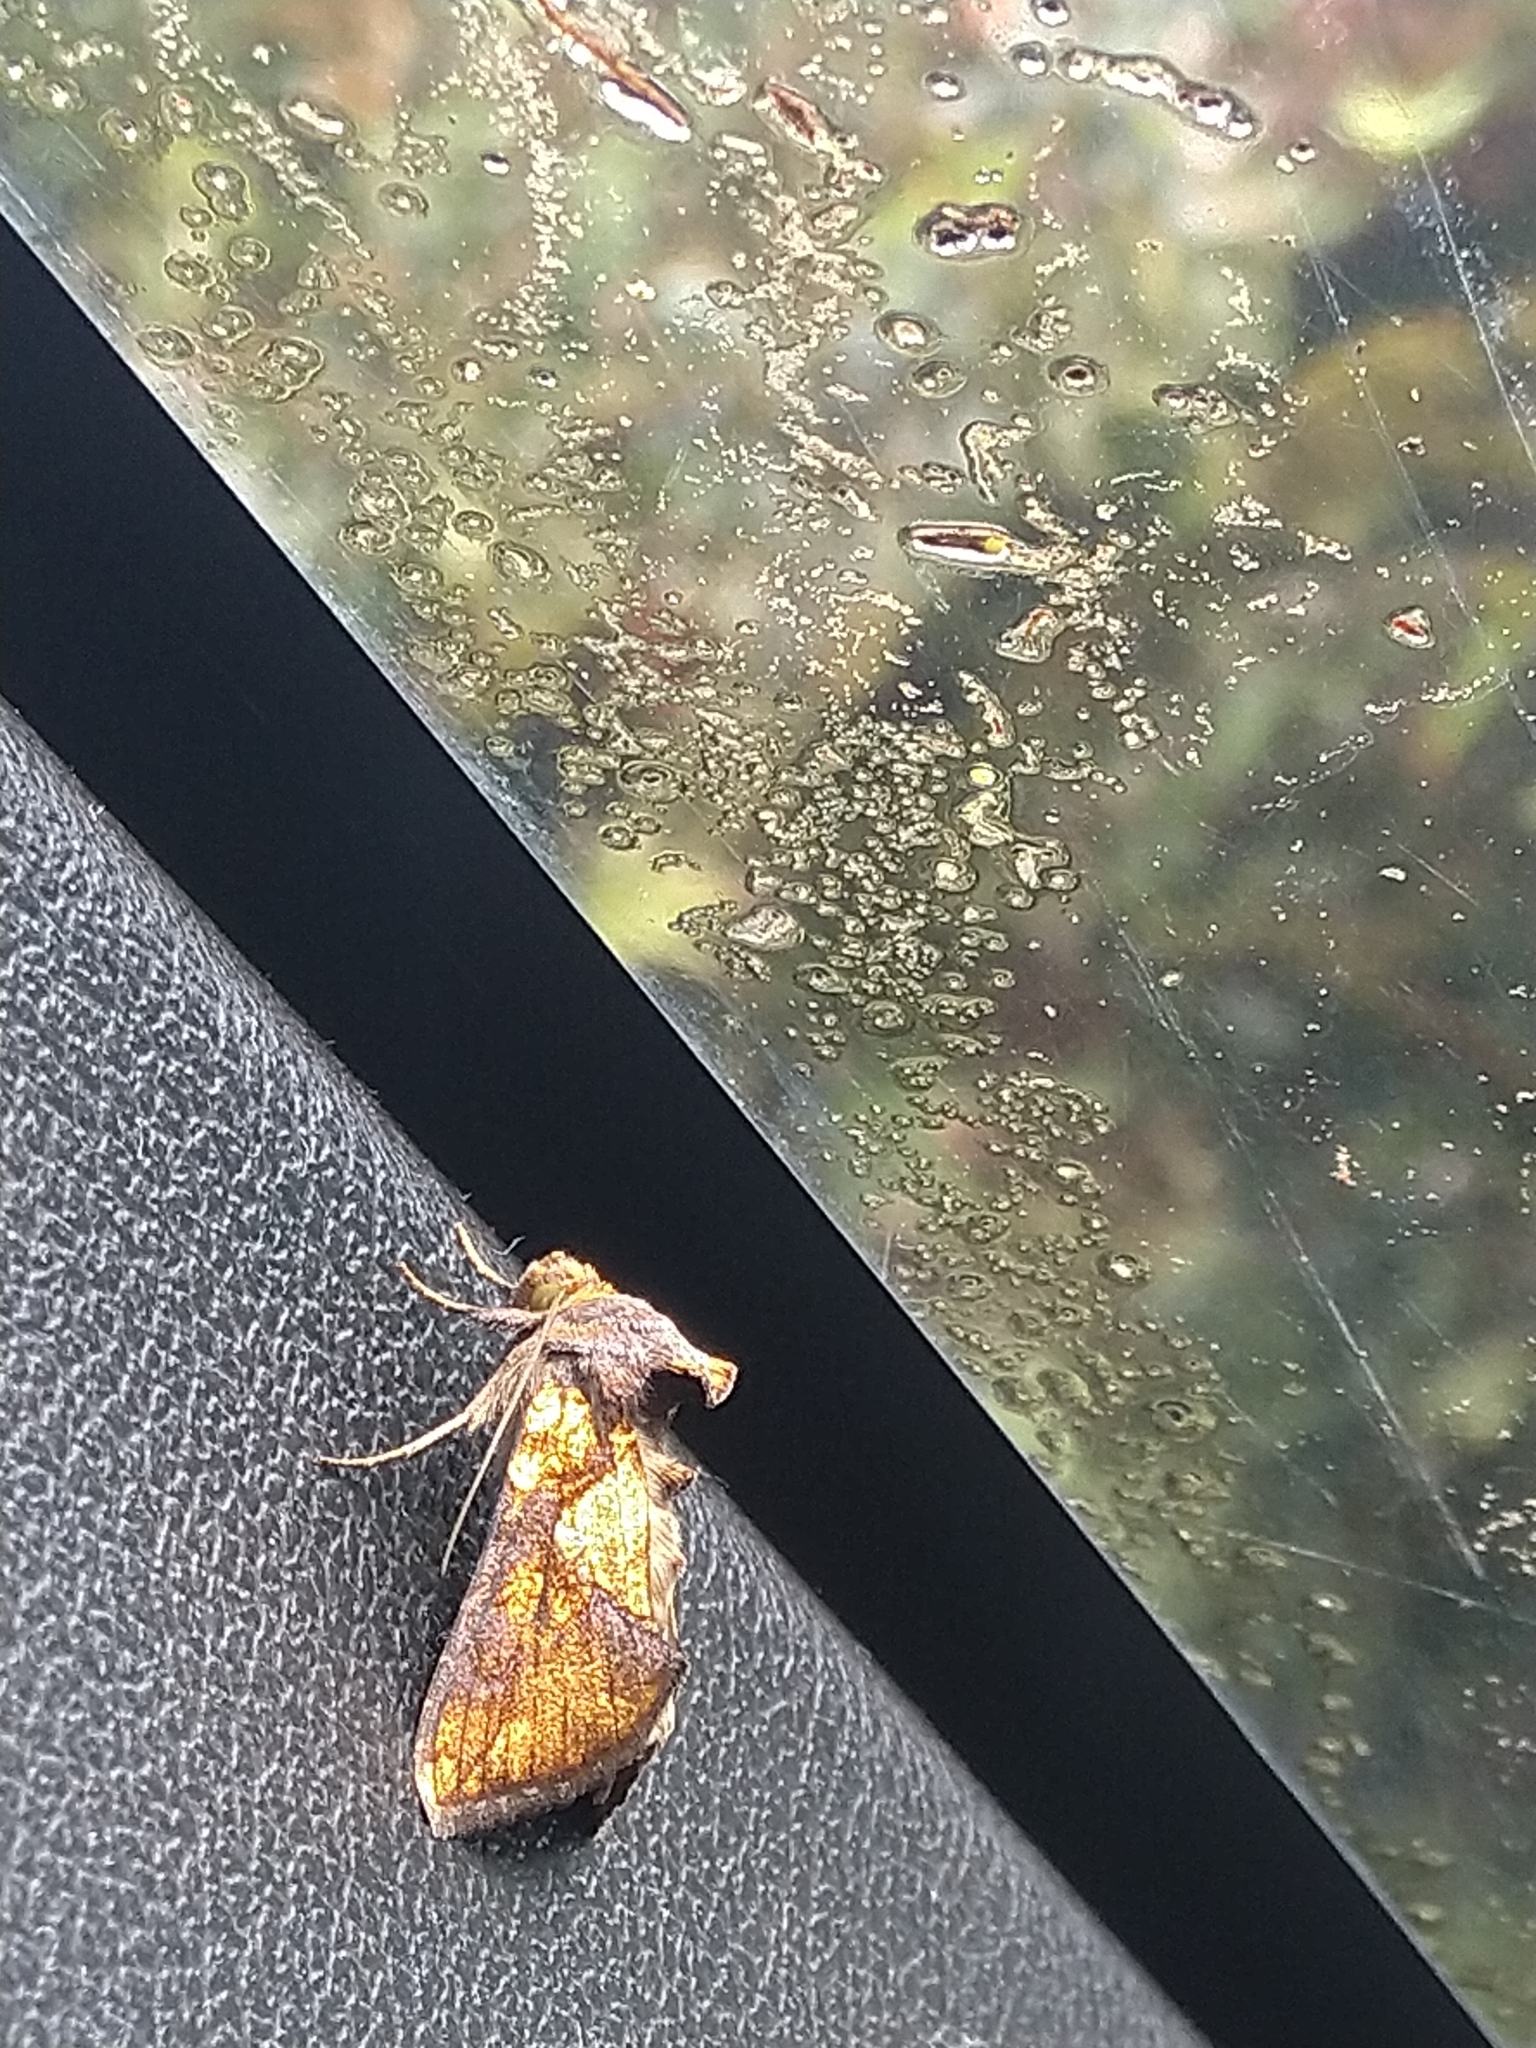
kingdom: Animalia
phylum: Arthropoda
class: Insecta
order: Lepidoptera
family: Noctuidae
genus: Argyrogramma
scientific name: Argyrogramma verruca
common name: Golden looper moth
